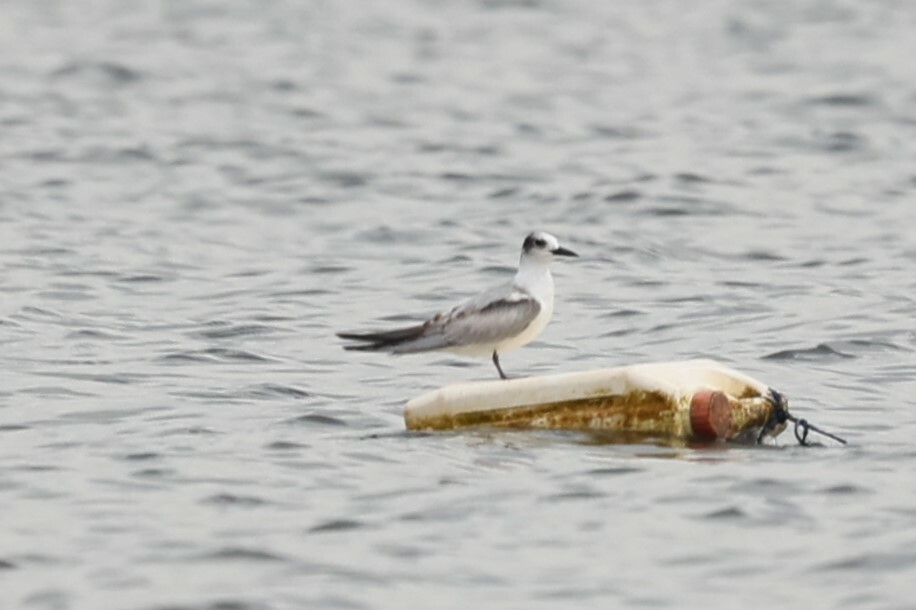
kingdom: Animalia
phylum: Chordata
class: Aves
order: Charadriiformes
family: Laridae
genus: Chlidonias
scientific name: Chlidonias leucopterus
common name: White-winged tern
